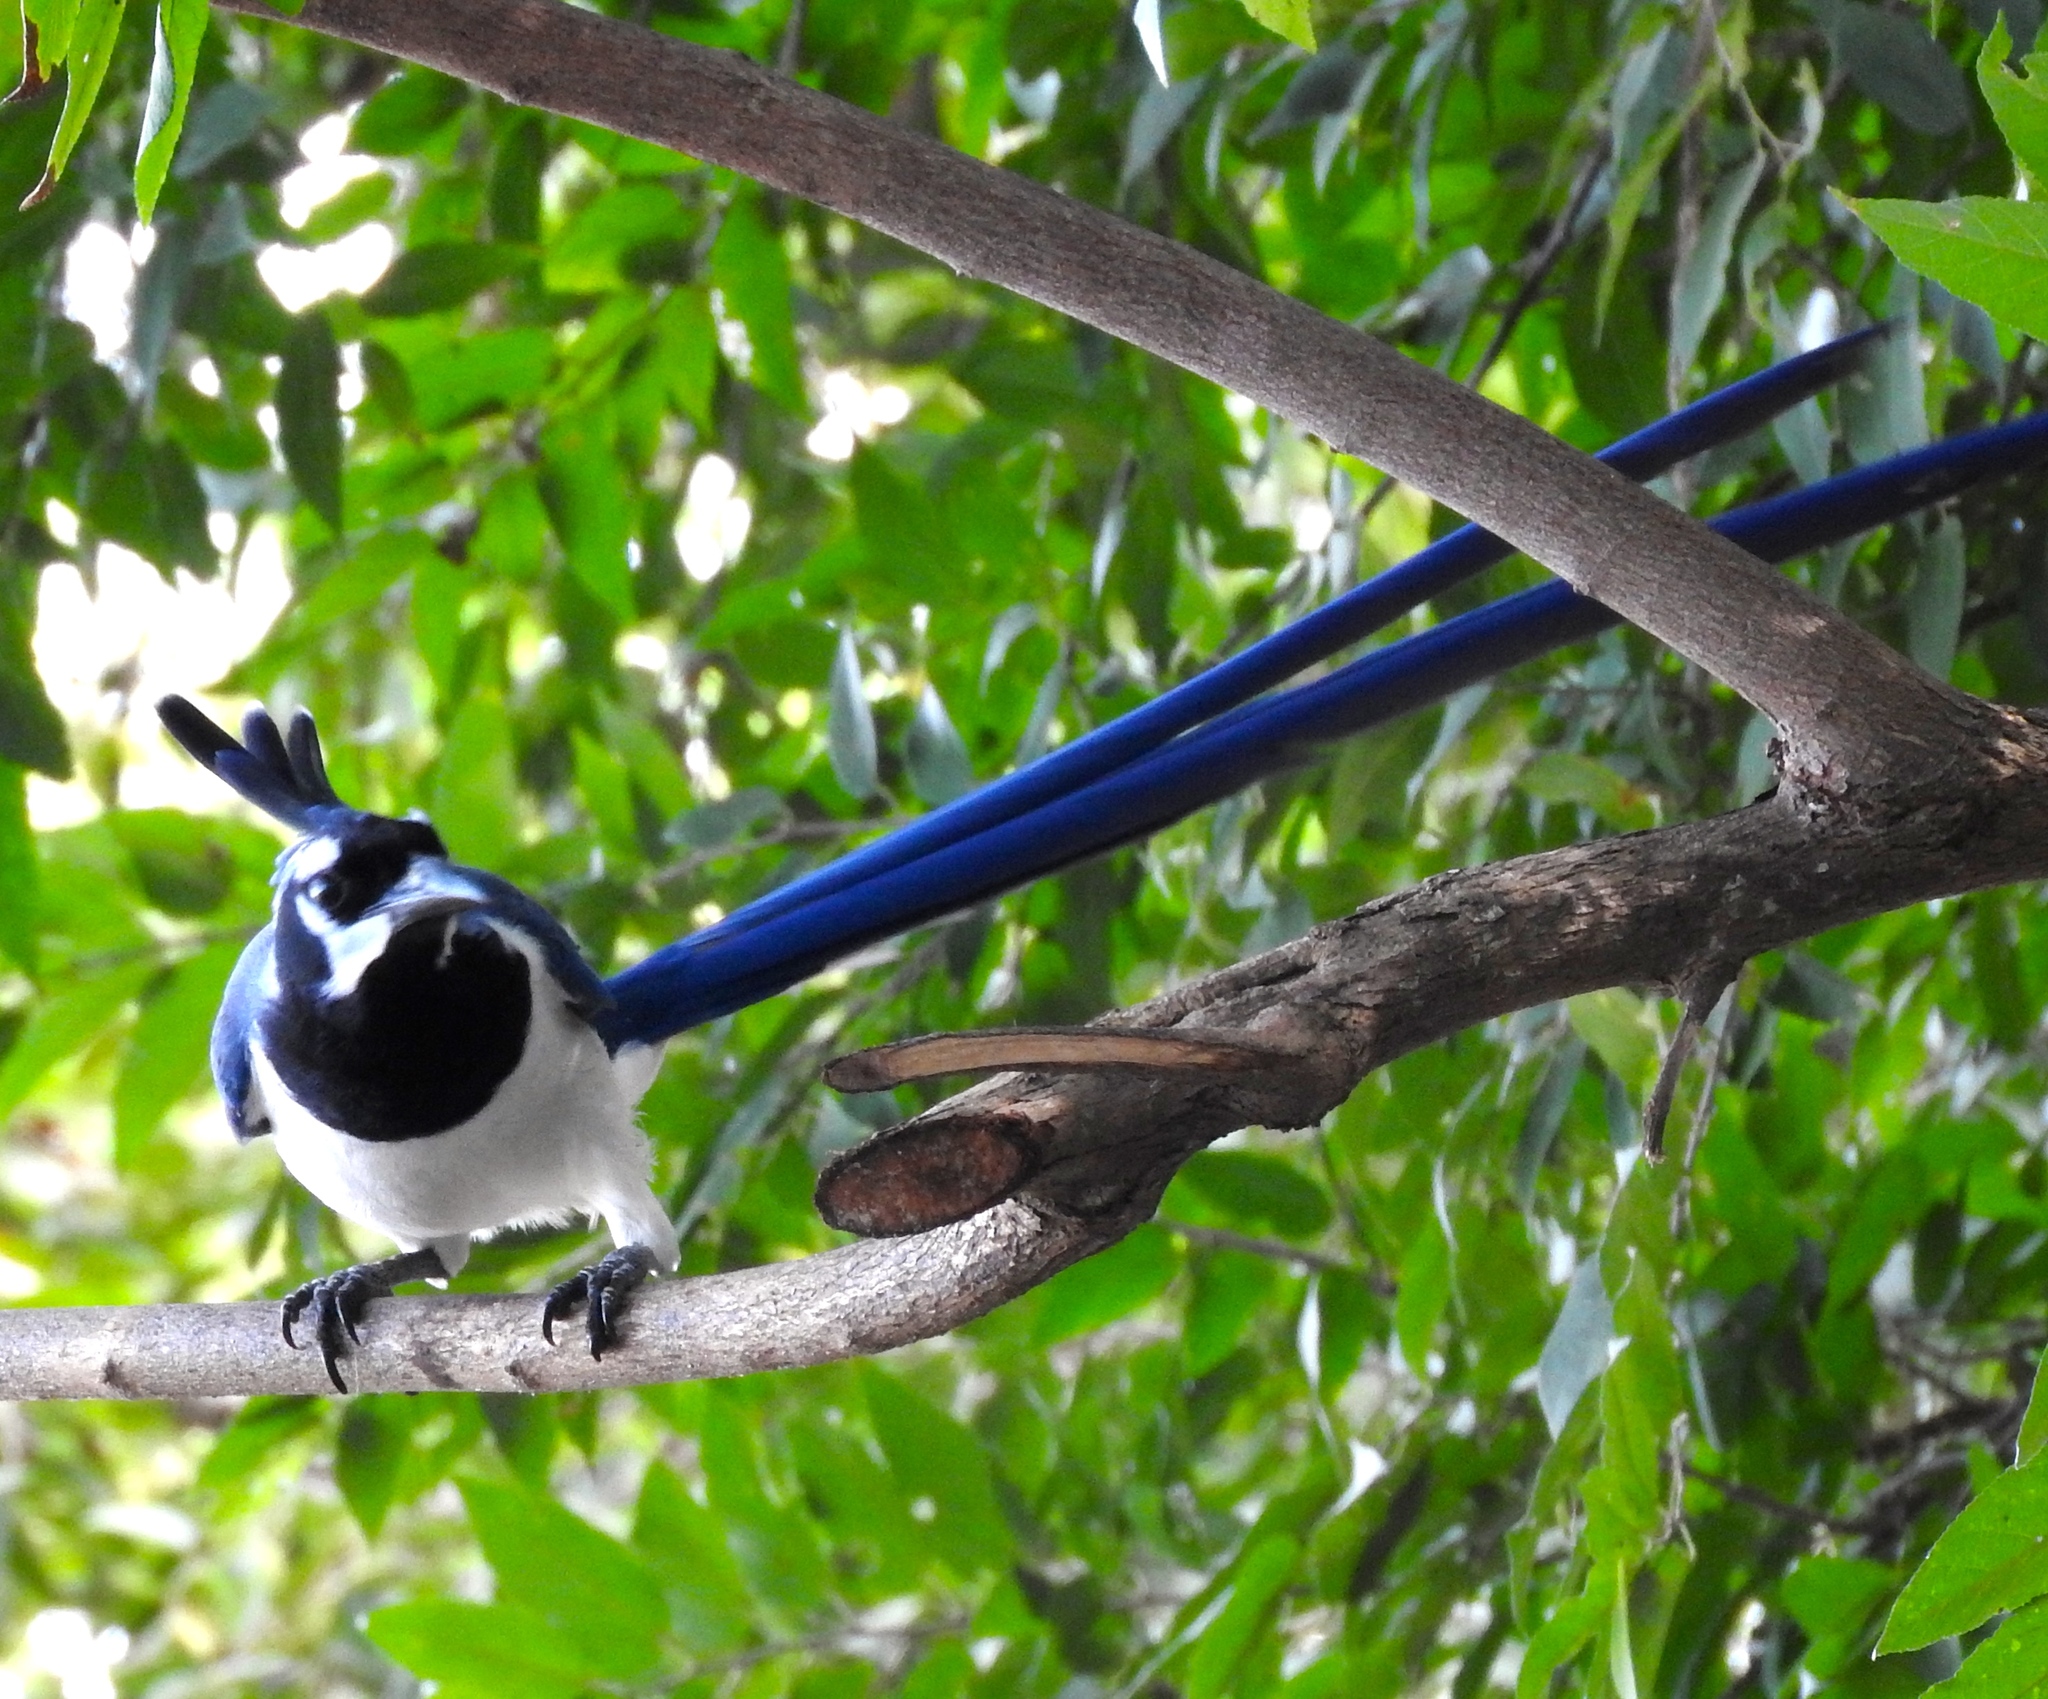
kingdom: Animalia
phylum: Chordata
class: Aves
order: Passeriformes
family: Corvidae
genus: Calocitta
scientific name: Calocitta colliei
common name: Black-throated magpie-jay
